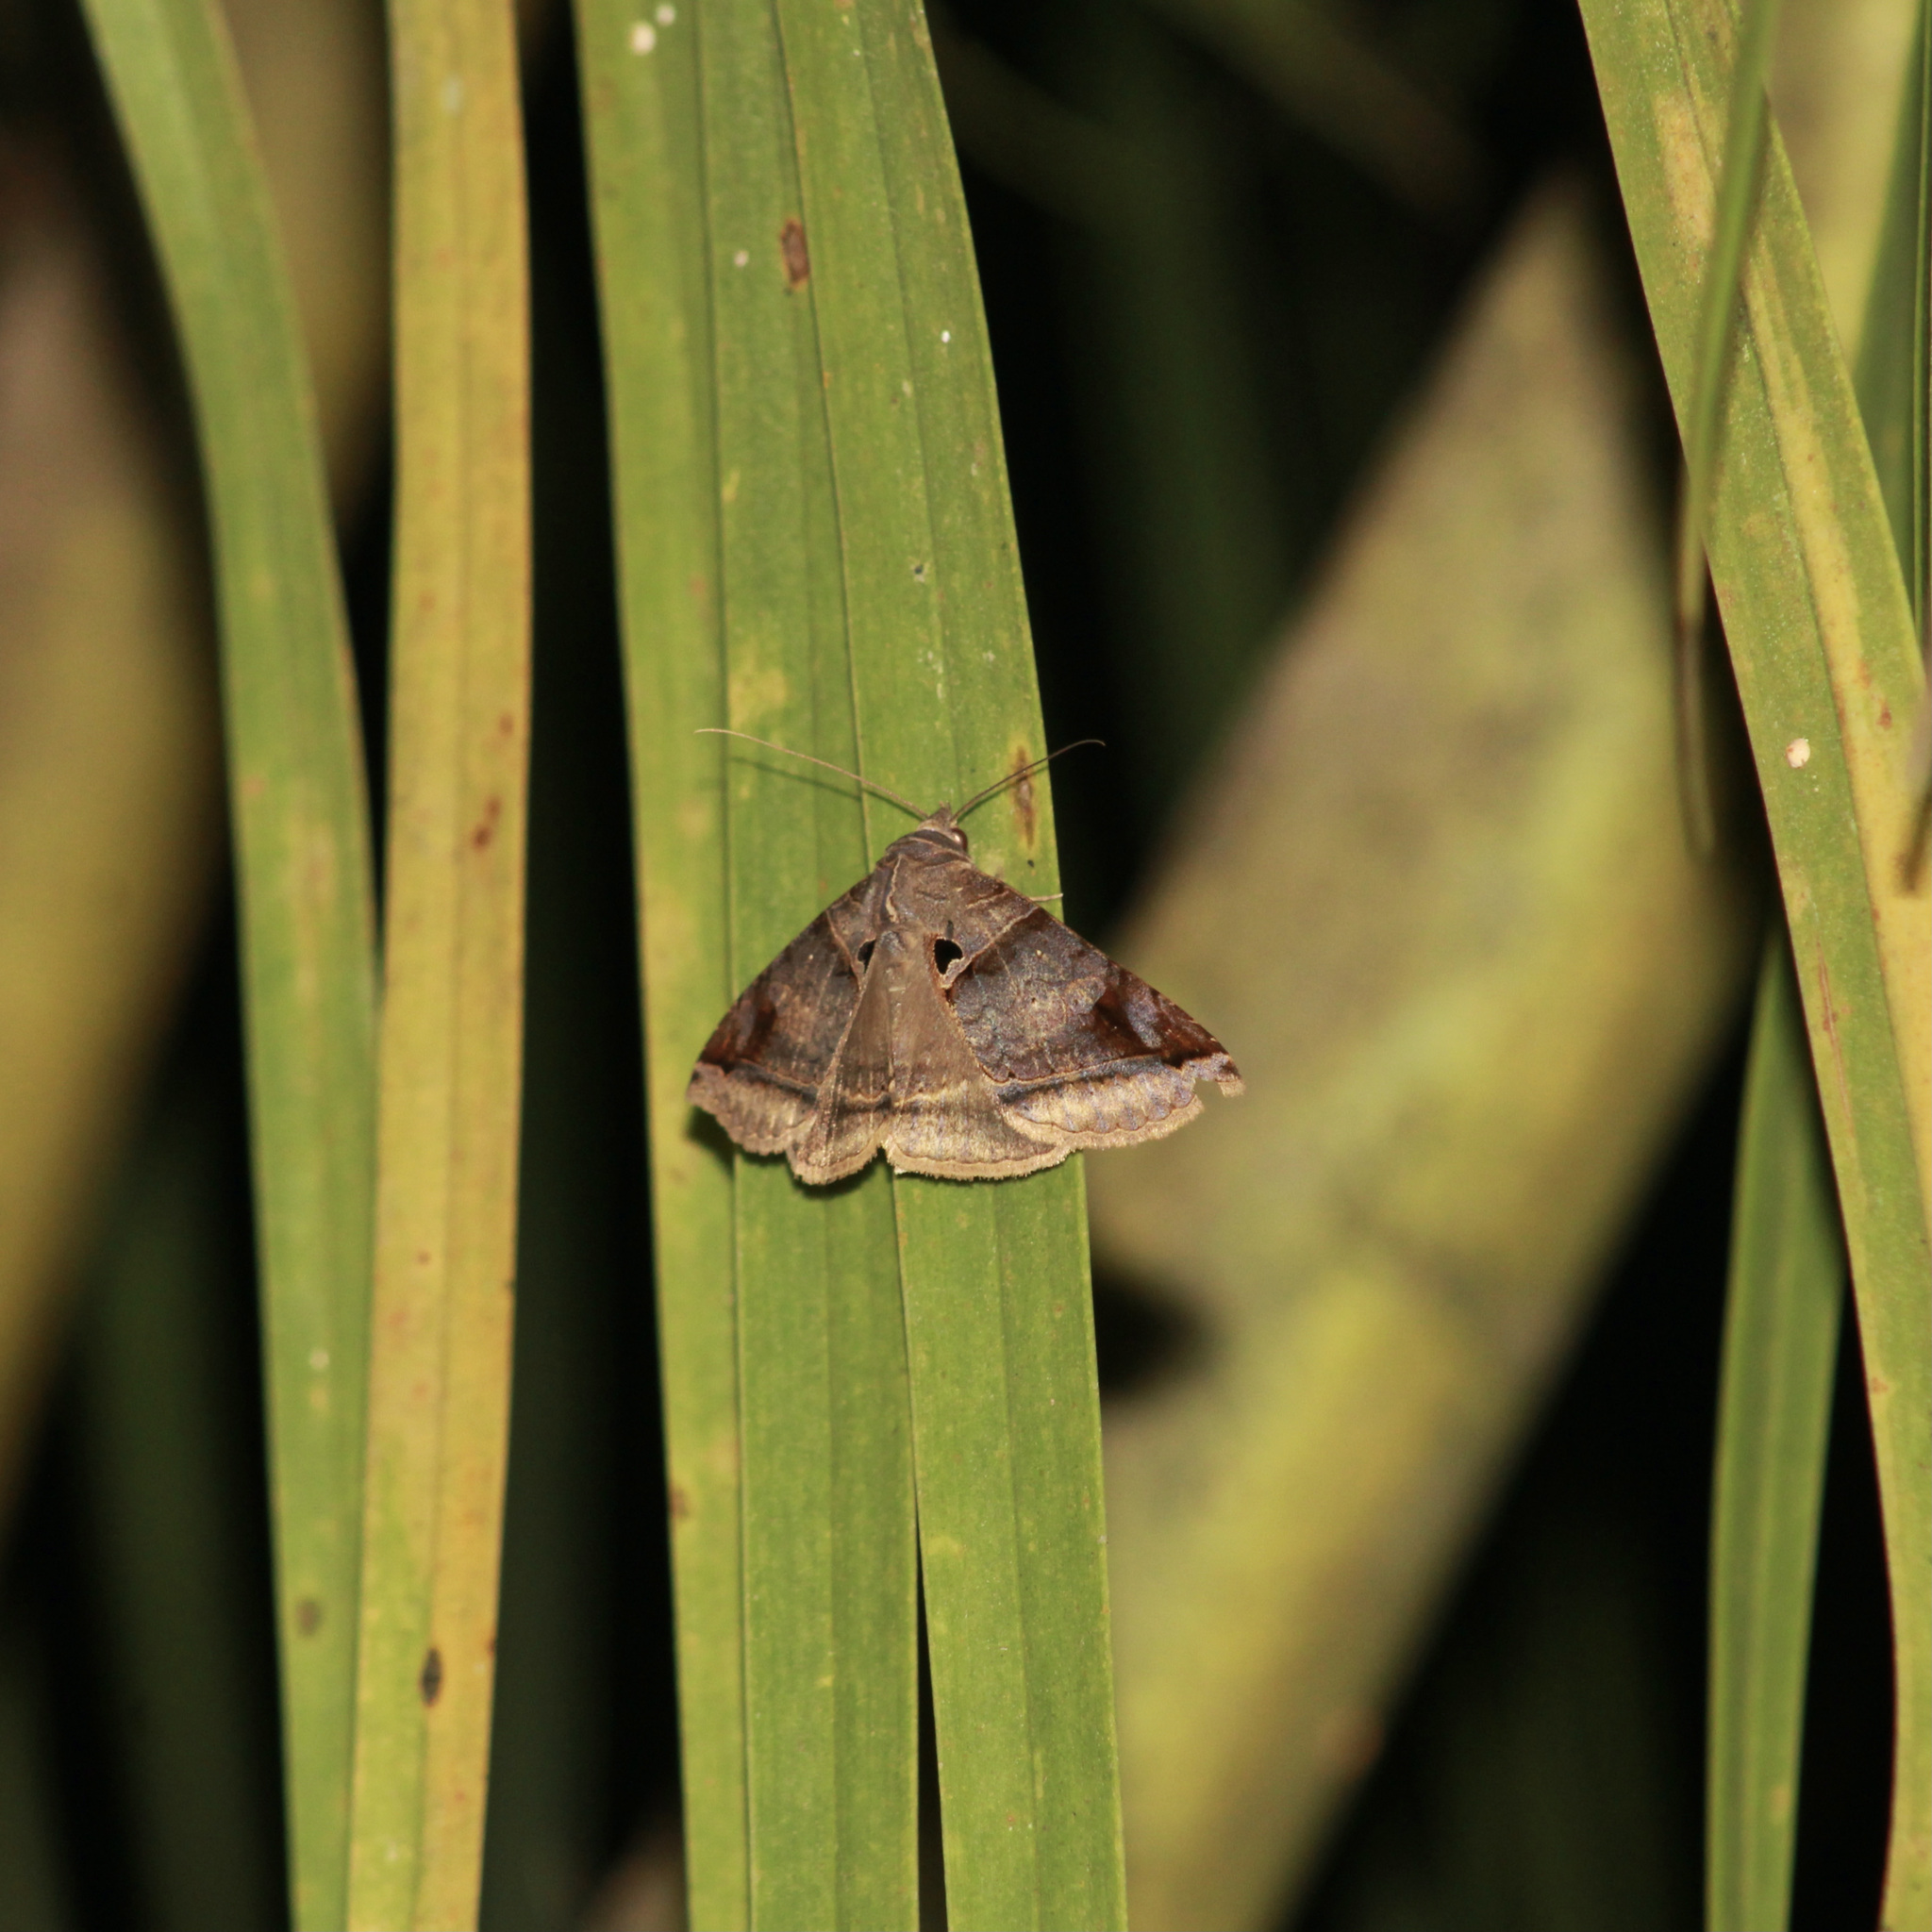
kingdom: Animalia
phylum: Arthropoda
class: Insecta
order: Lepidoptera
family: Erebidae
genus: Celiptera
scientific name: Celiptera levina
